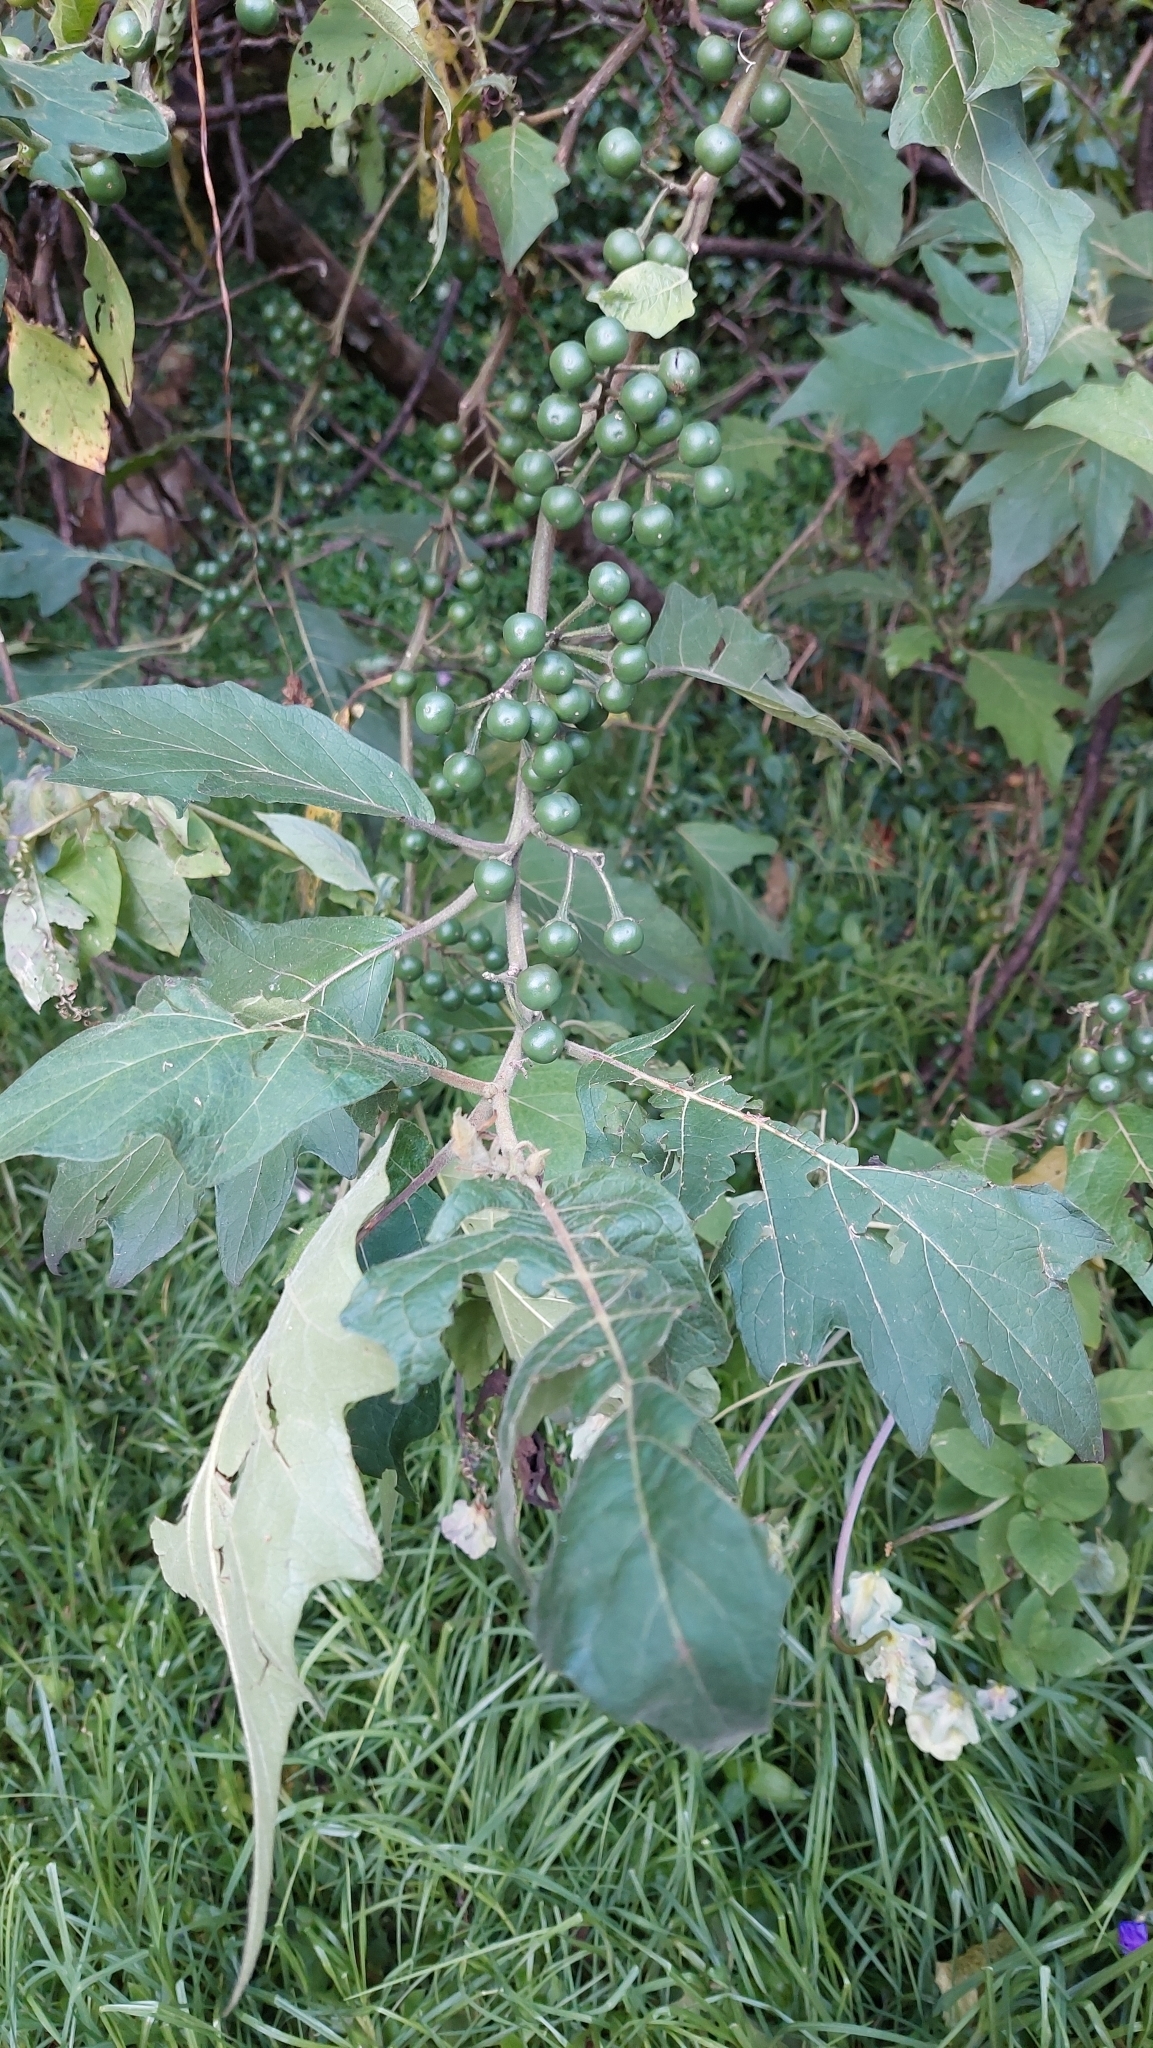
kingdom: Plantae
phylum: Tracheophyta
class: Magnoliopsida
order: Solanales
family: Solanaceae
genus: Solanum
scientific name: Solanum stellatiglandulosum
